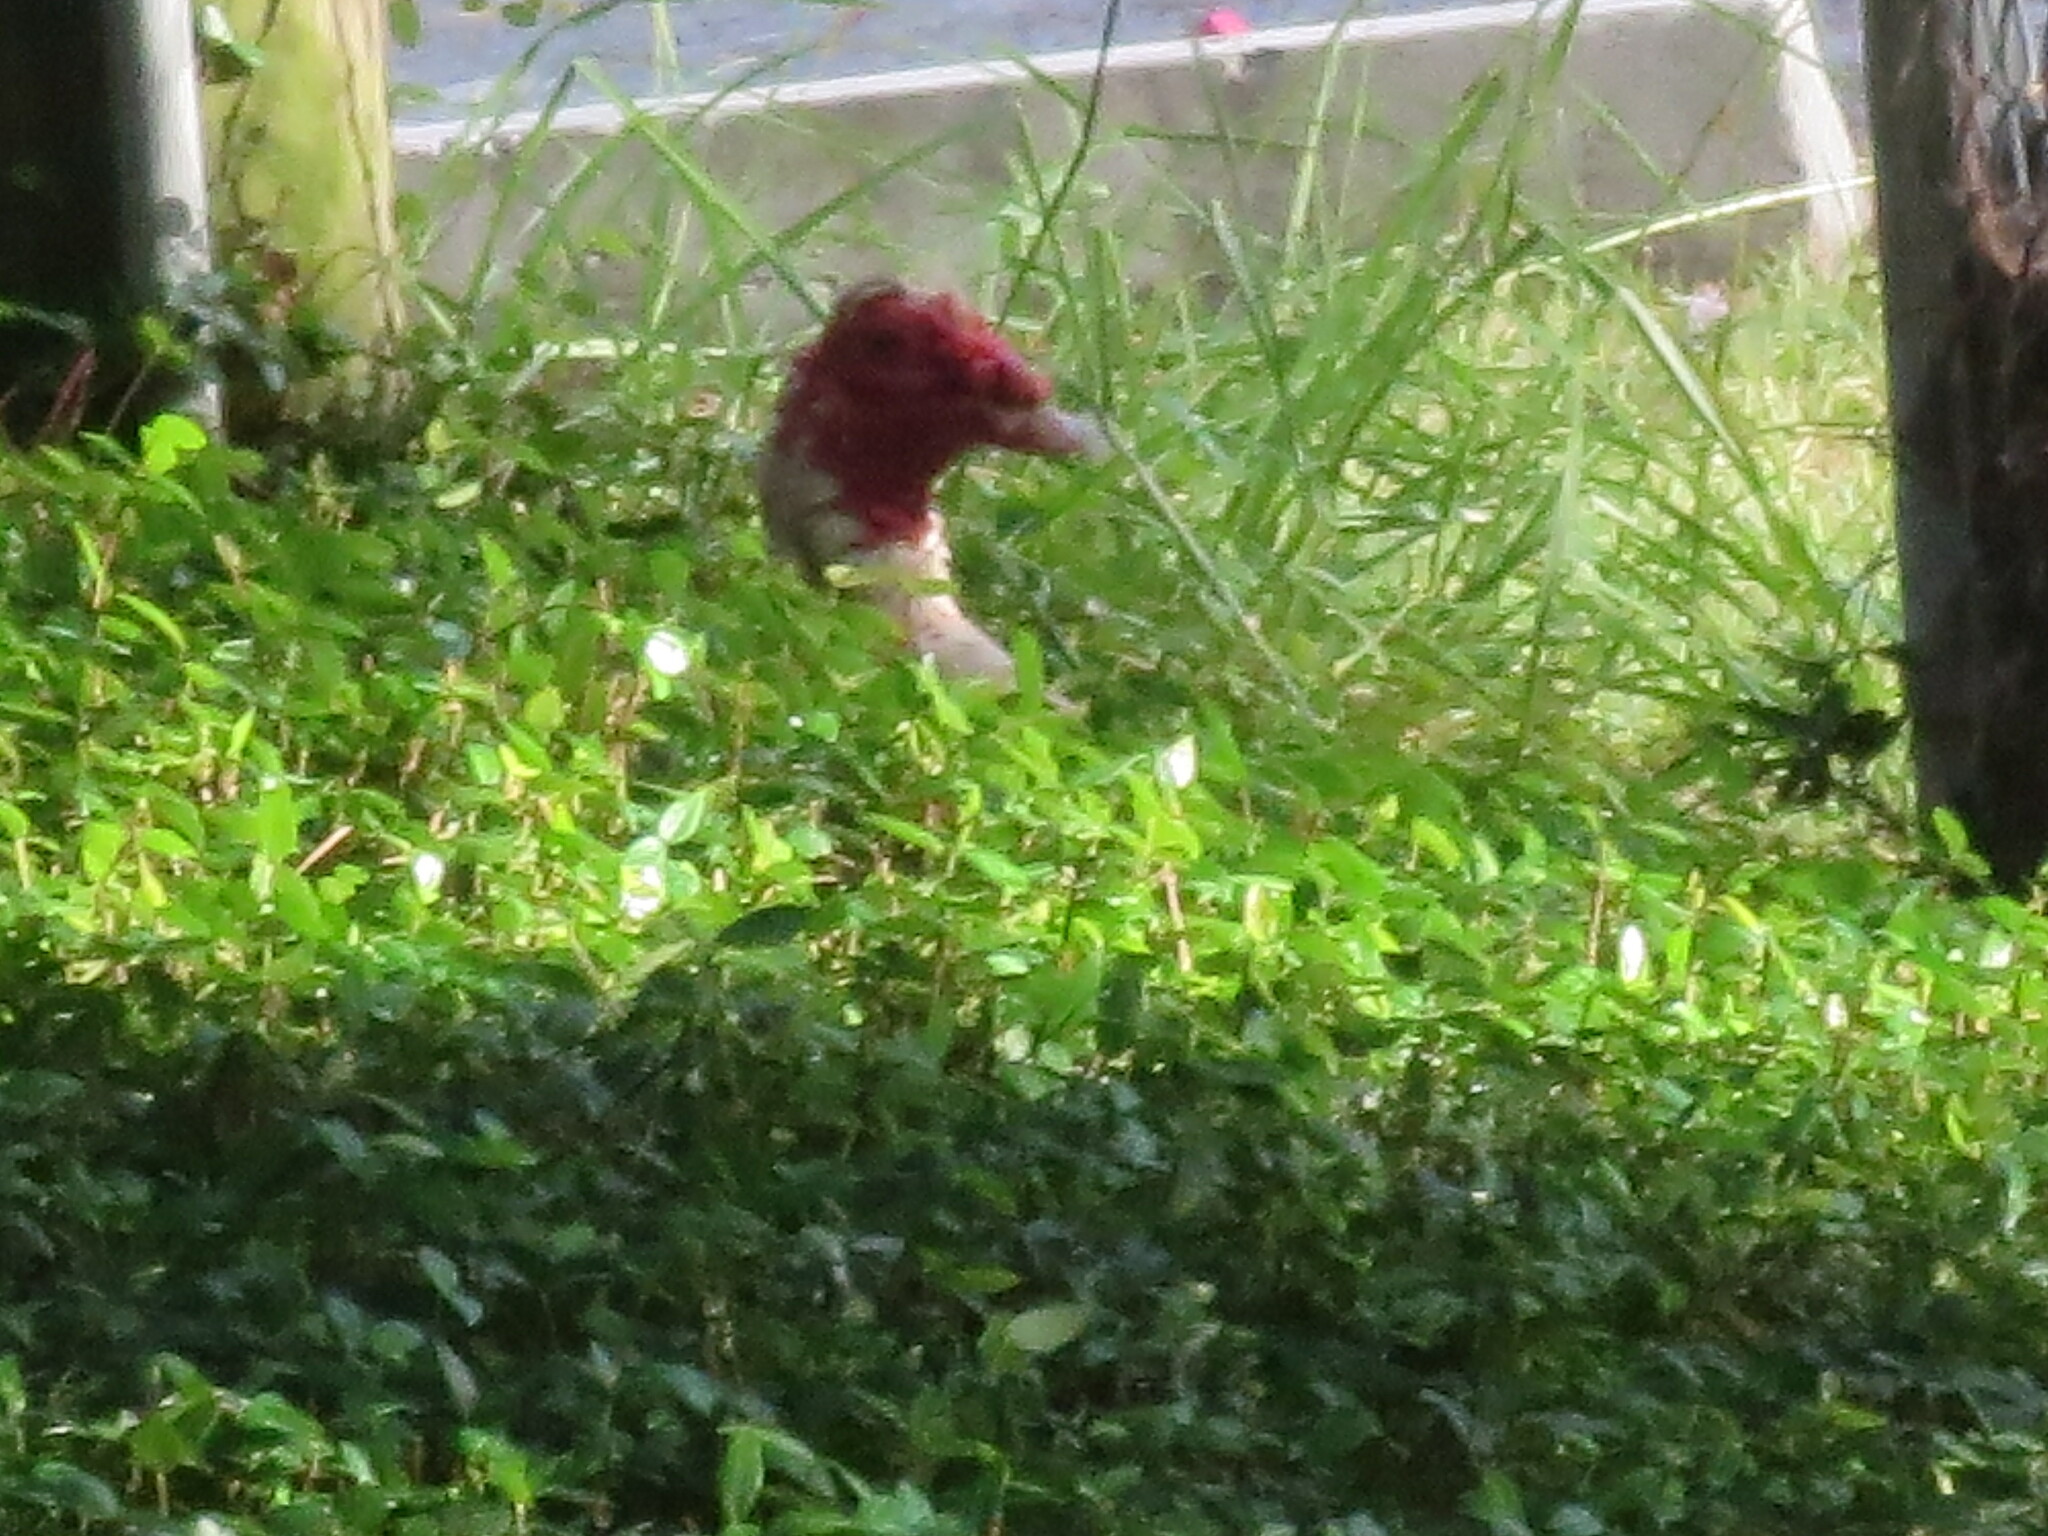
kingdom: Animalia
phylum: Chordata
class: Aves
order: Anseriformes
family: Anatidae
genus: Cairina
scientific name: Cairina moschata
